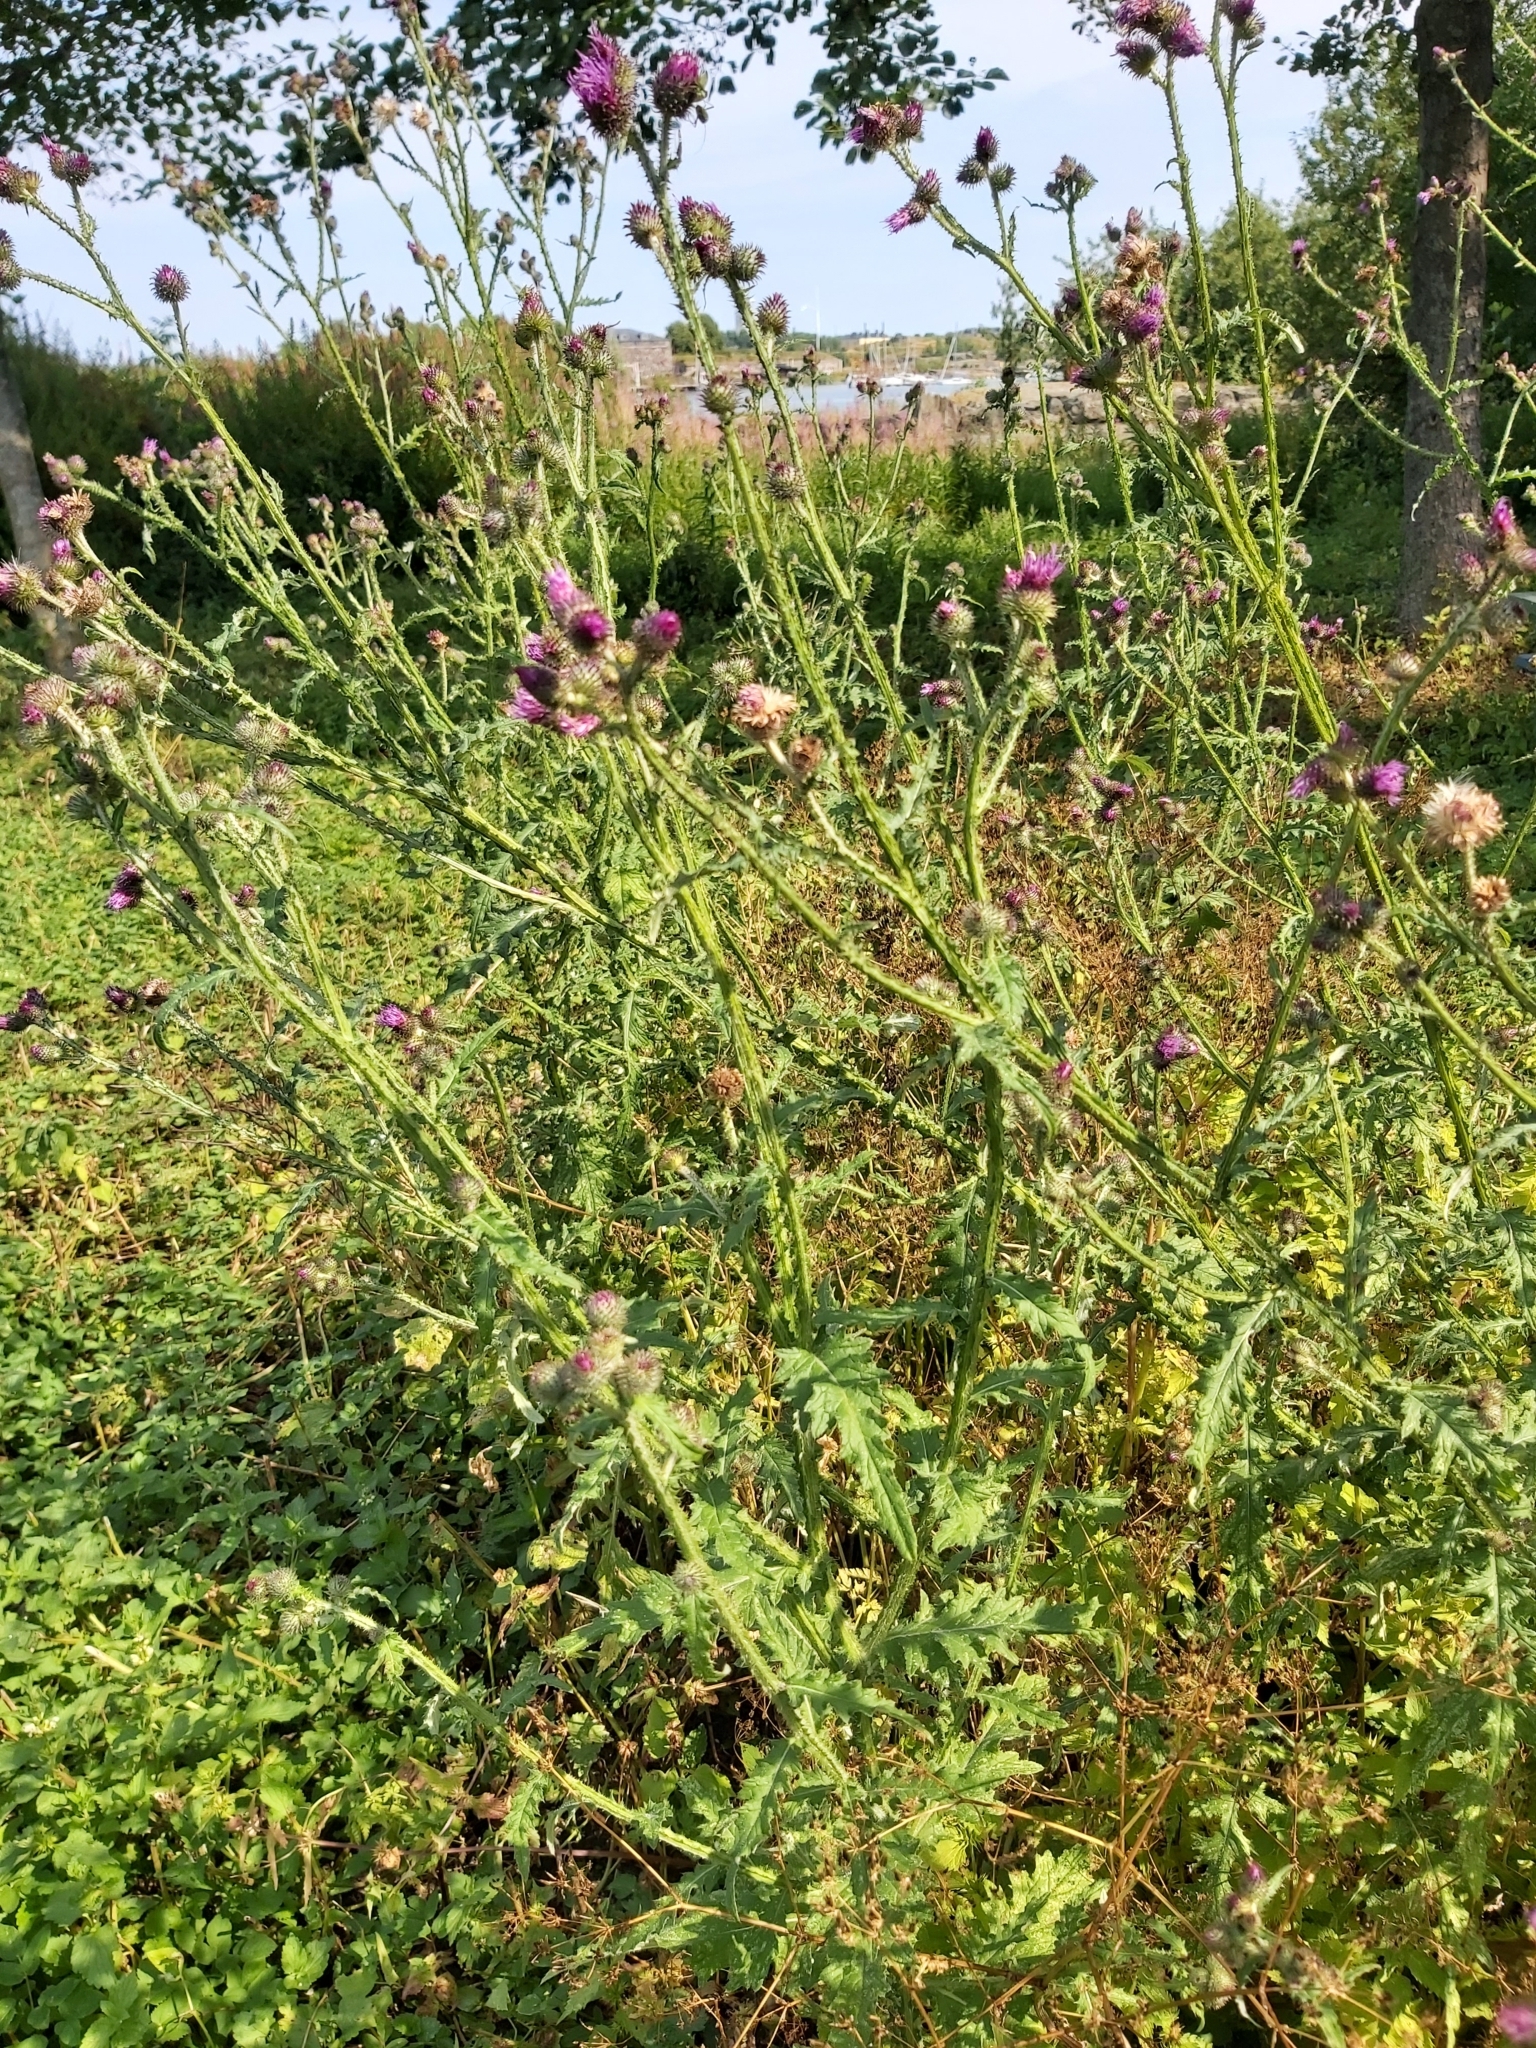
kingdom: Plantae
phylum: Tracheophyta
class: Magnoliopsida
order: Asterales
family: Asteraceae
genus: Carduus
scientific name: Carduus crispus
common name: Welted thistle
